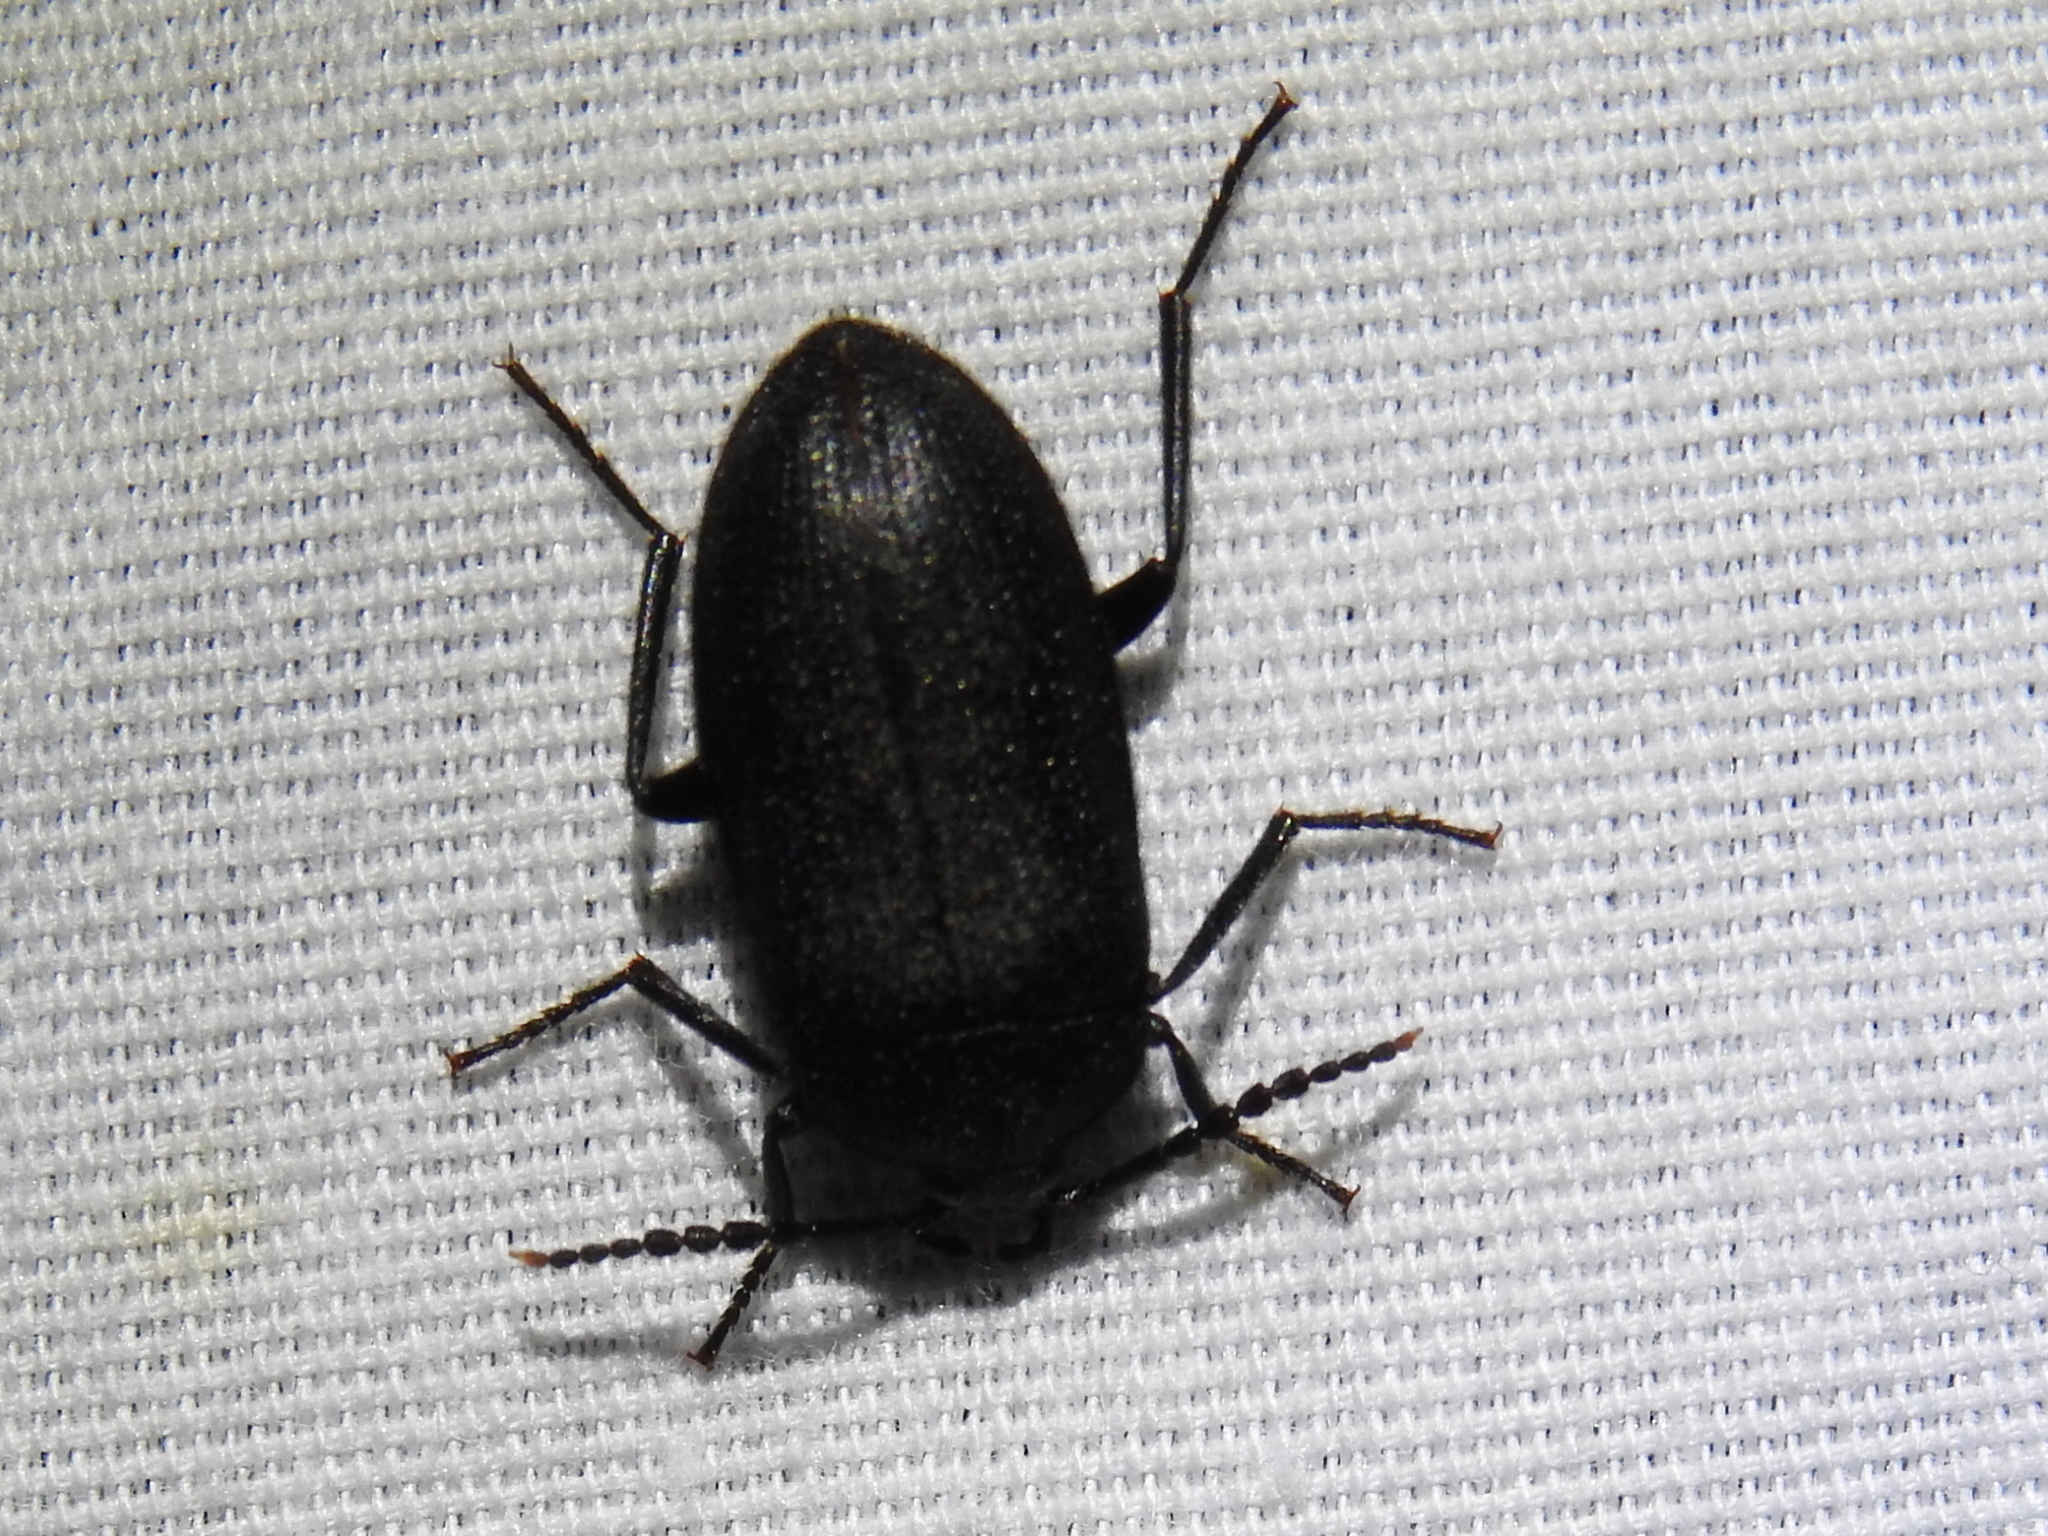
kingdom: Animalia
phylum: Arthropoda
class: Insecta
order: Coleoptera
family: Tetratomidae
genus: Penthe
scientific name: Penthe pimelia
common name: Velvety bark beetle
